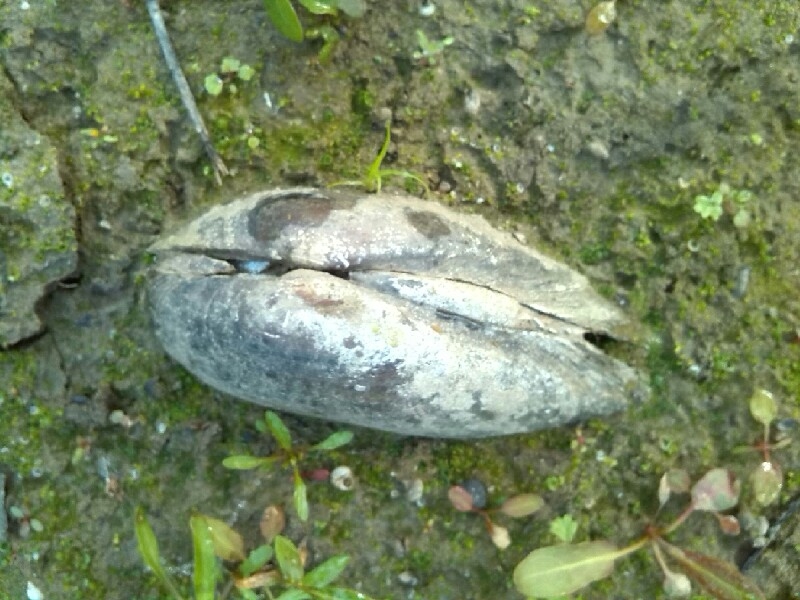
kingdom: Animalia
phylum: Mollusca
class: Bivalvia
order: Unionida
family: Unionidae
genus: Unio
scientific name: Unio tumidus
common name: Swollen river mussel
